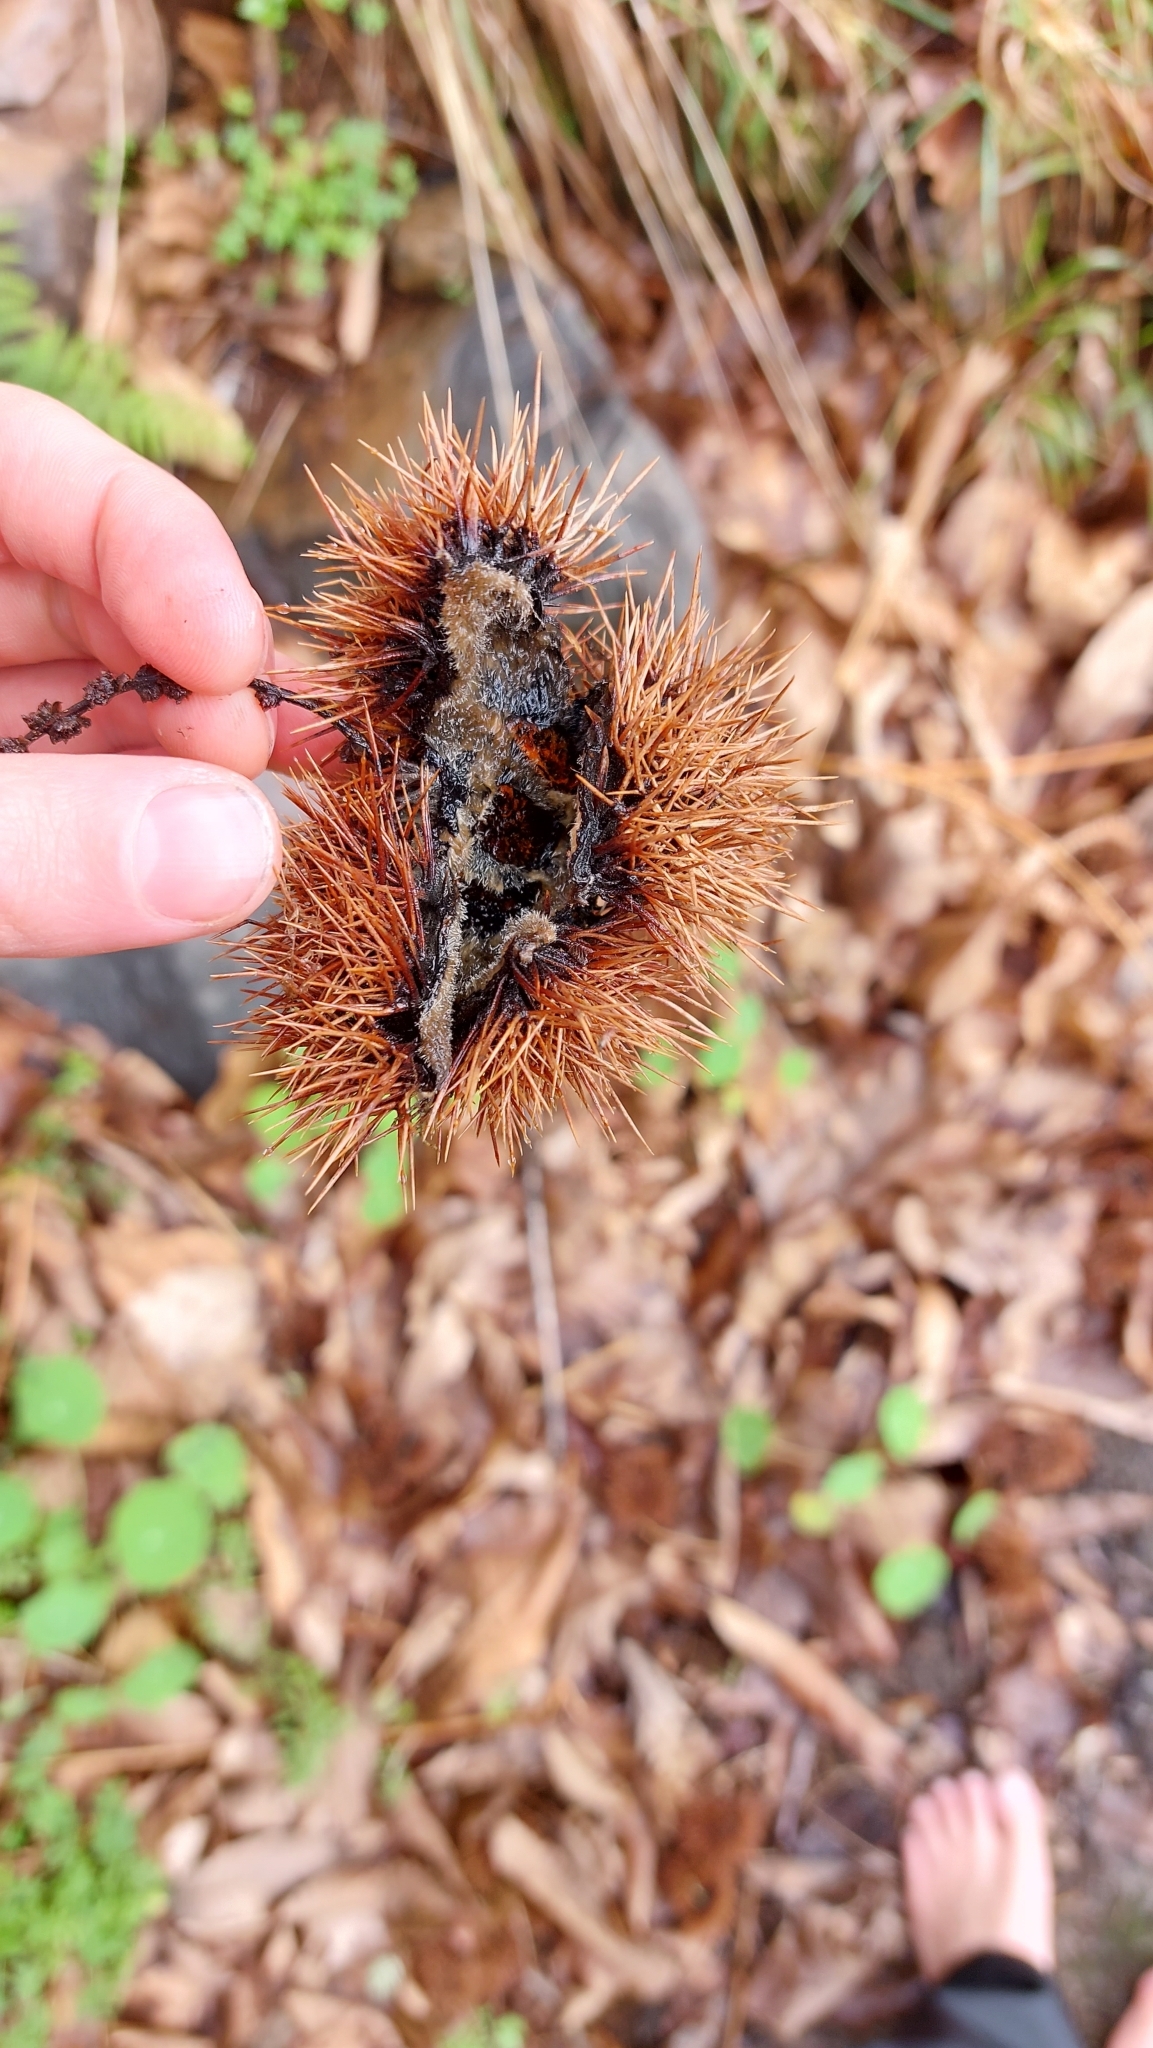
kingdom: Plantae
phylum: Tracheophyta
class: Magnoliopsida
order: Fagales
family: Fagaceae
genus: Castanea
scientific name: Castanea sativa
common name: Sweet chestnut
